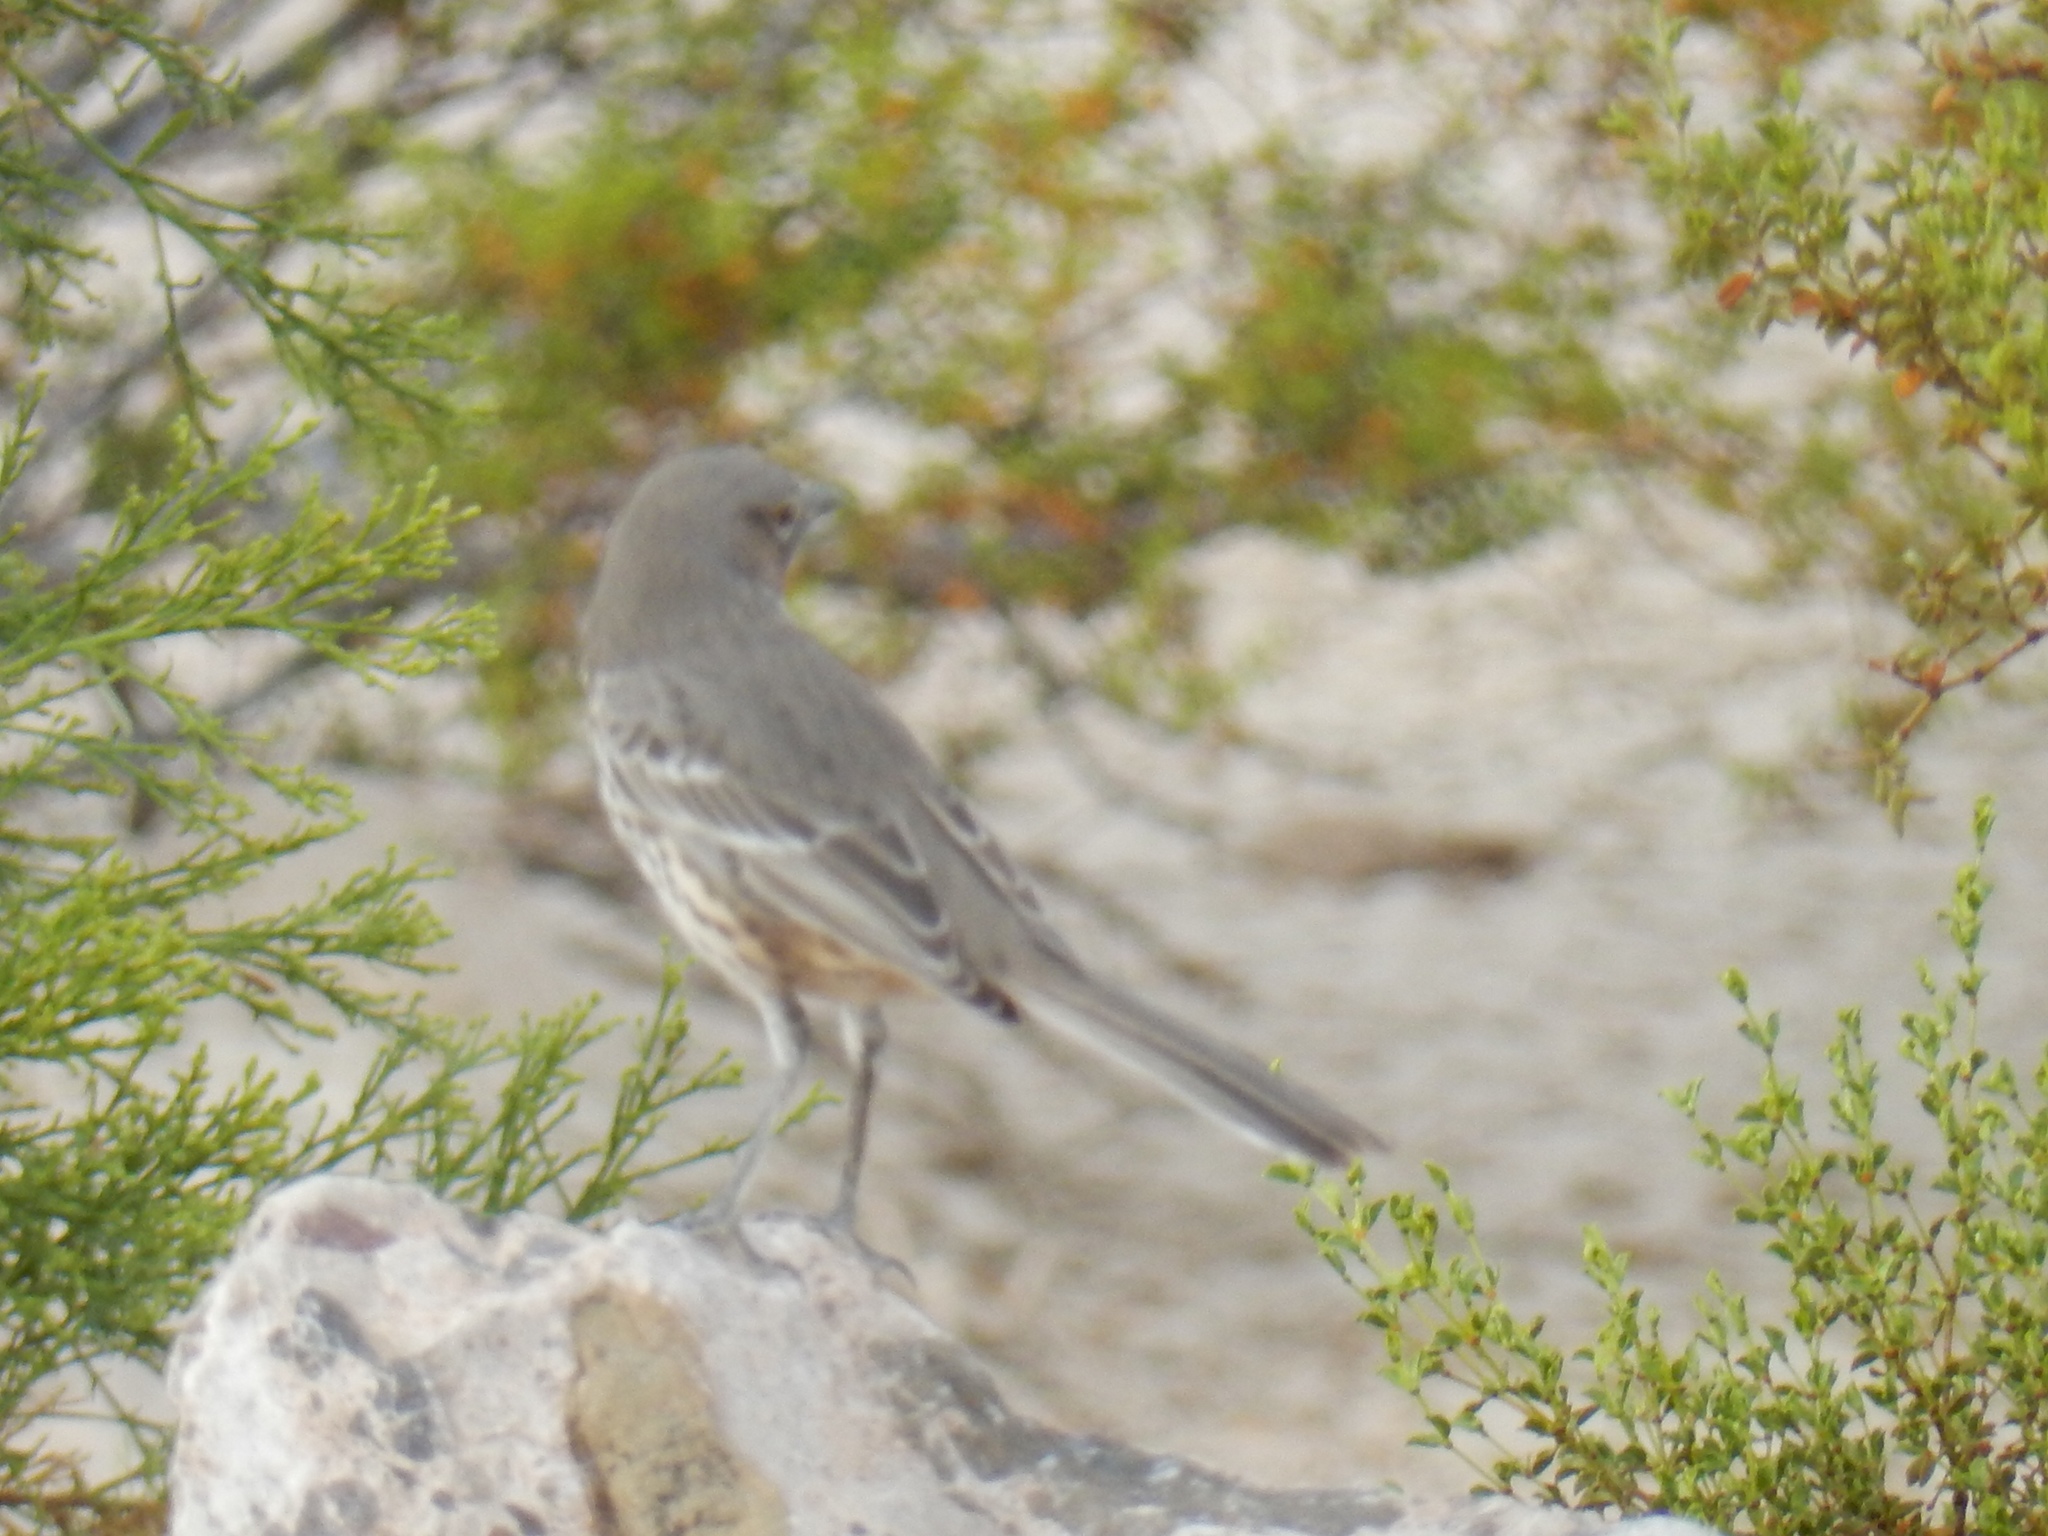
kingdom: Animalia
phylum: Chordata
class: Aves
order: Passeriformes
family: Mimidae
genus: Oreoscoptes
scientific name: Oreoscoptes montanus
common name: Sage thrasher
